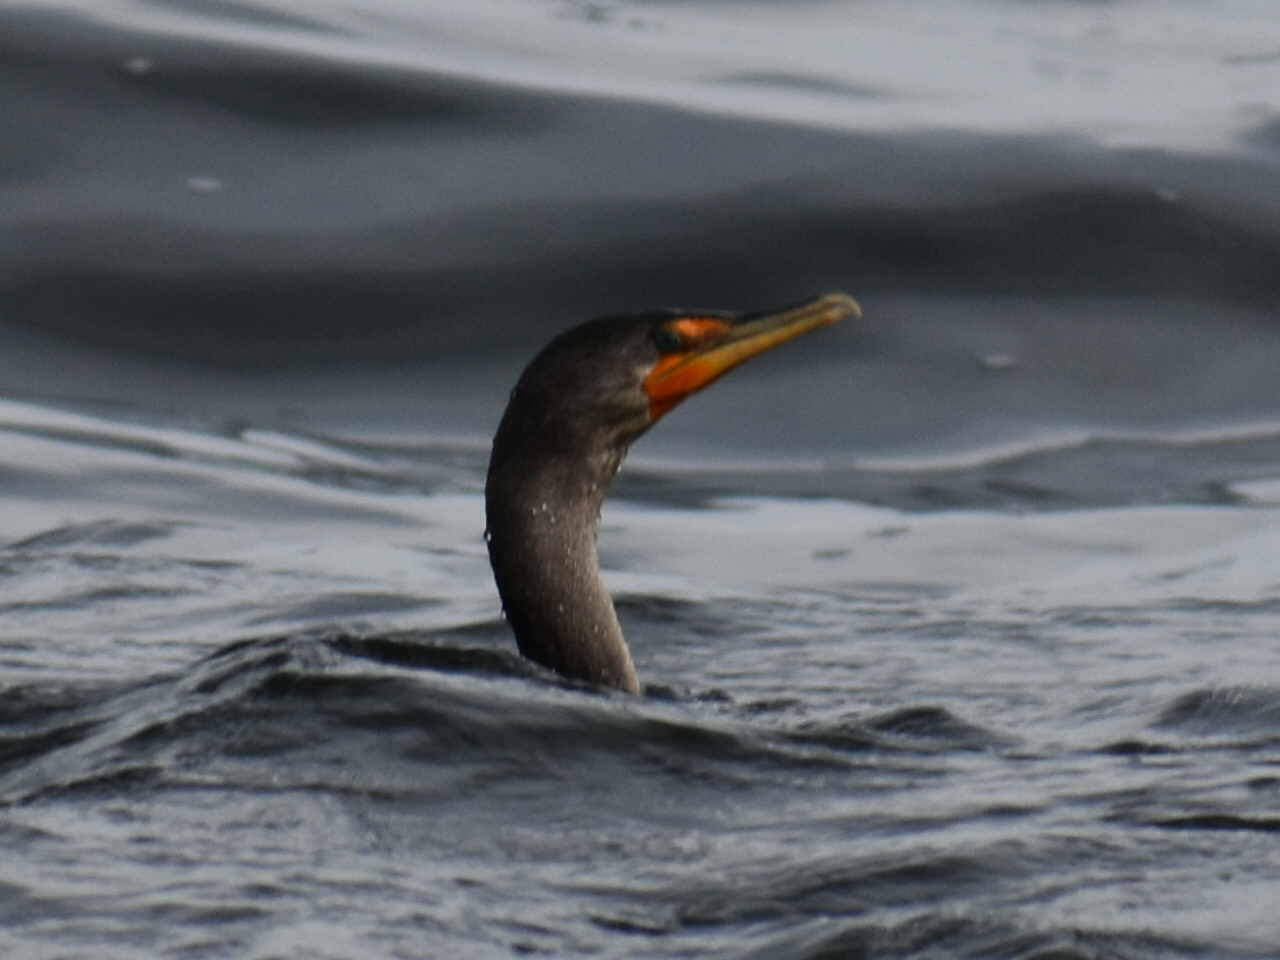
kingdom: Animalia
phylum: Chordata
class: Aves
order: Suliformes
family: Phalacrocoracidae
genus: Phalacrocorax
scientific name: Phalacrocorax auritus
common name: Double-crested cormorant
